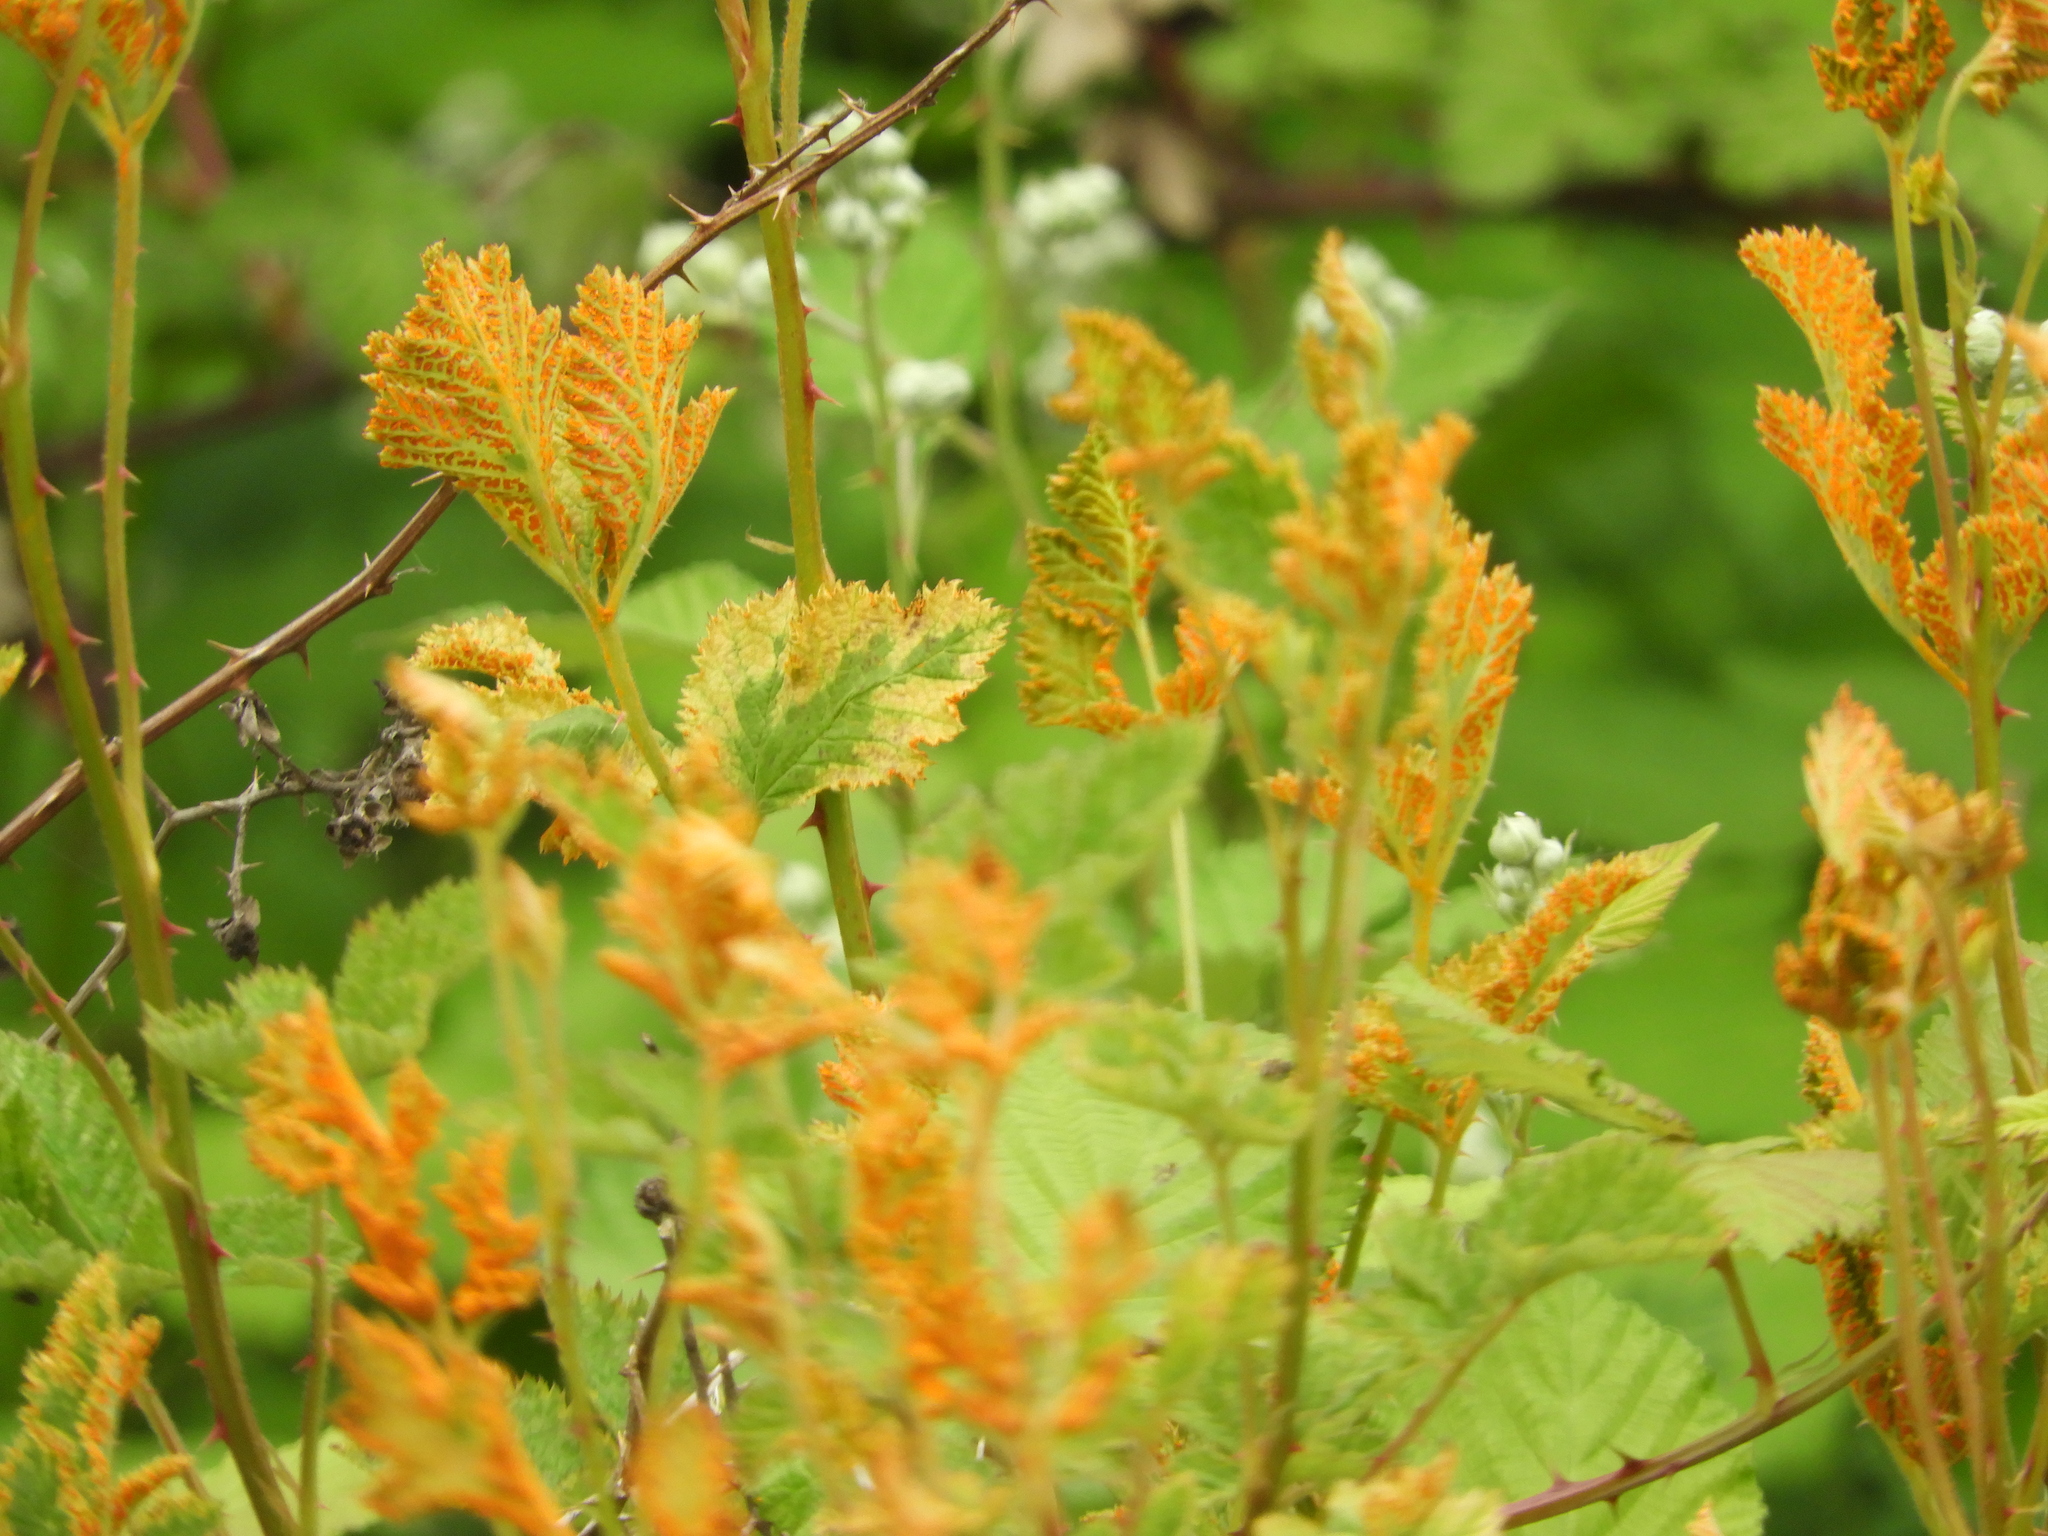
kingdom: Fungi
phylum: Basidiomycota
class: Pucciniomycetes
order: Pucciniales
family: Phragmidiaceae
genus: Arthuriomyces
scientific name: Arthuriomyces peckianus
